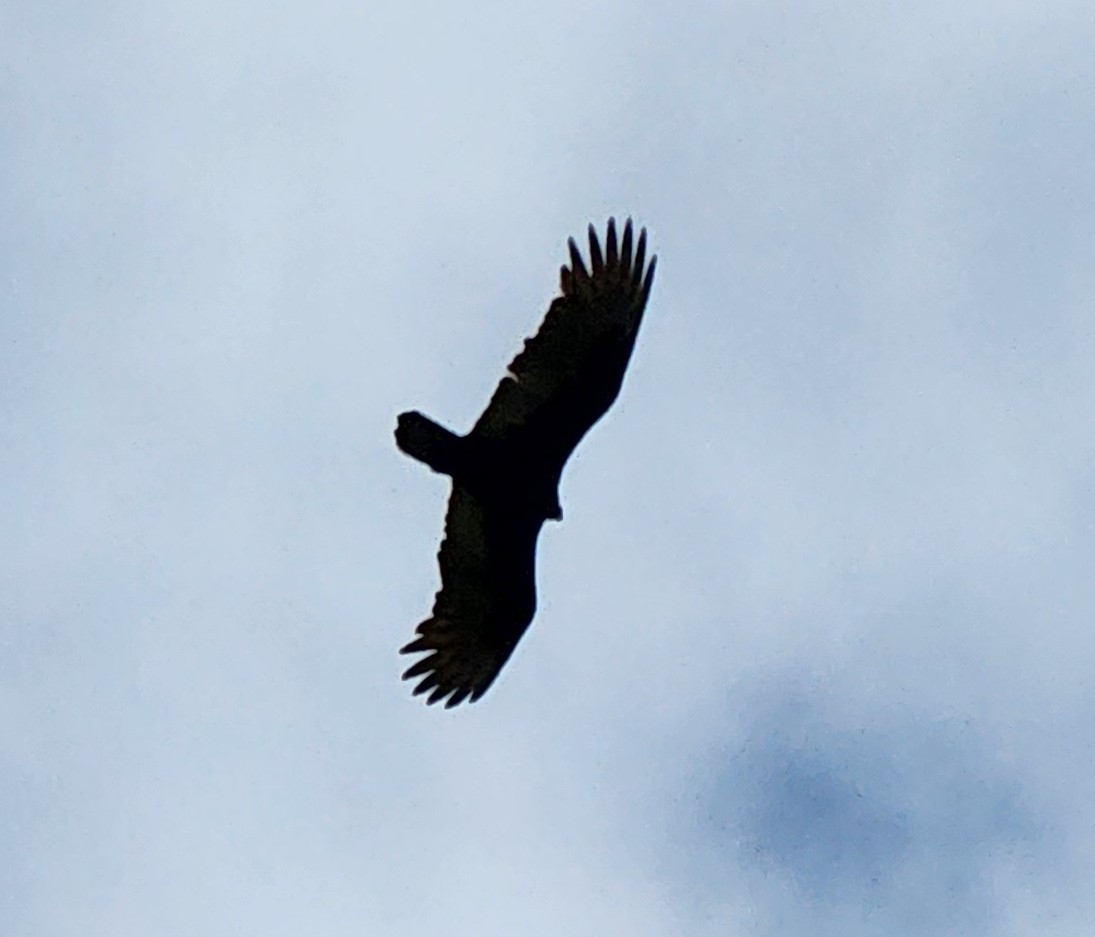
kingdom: Animalia
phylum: Chordata
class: Aves
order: Accipitriformes
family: Cathartidae
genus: Cathartes
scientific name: Cathartes aura
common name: Turkey vulture
